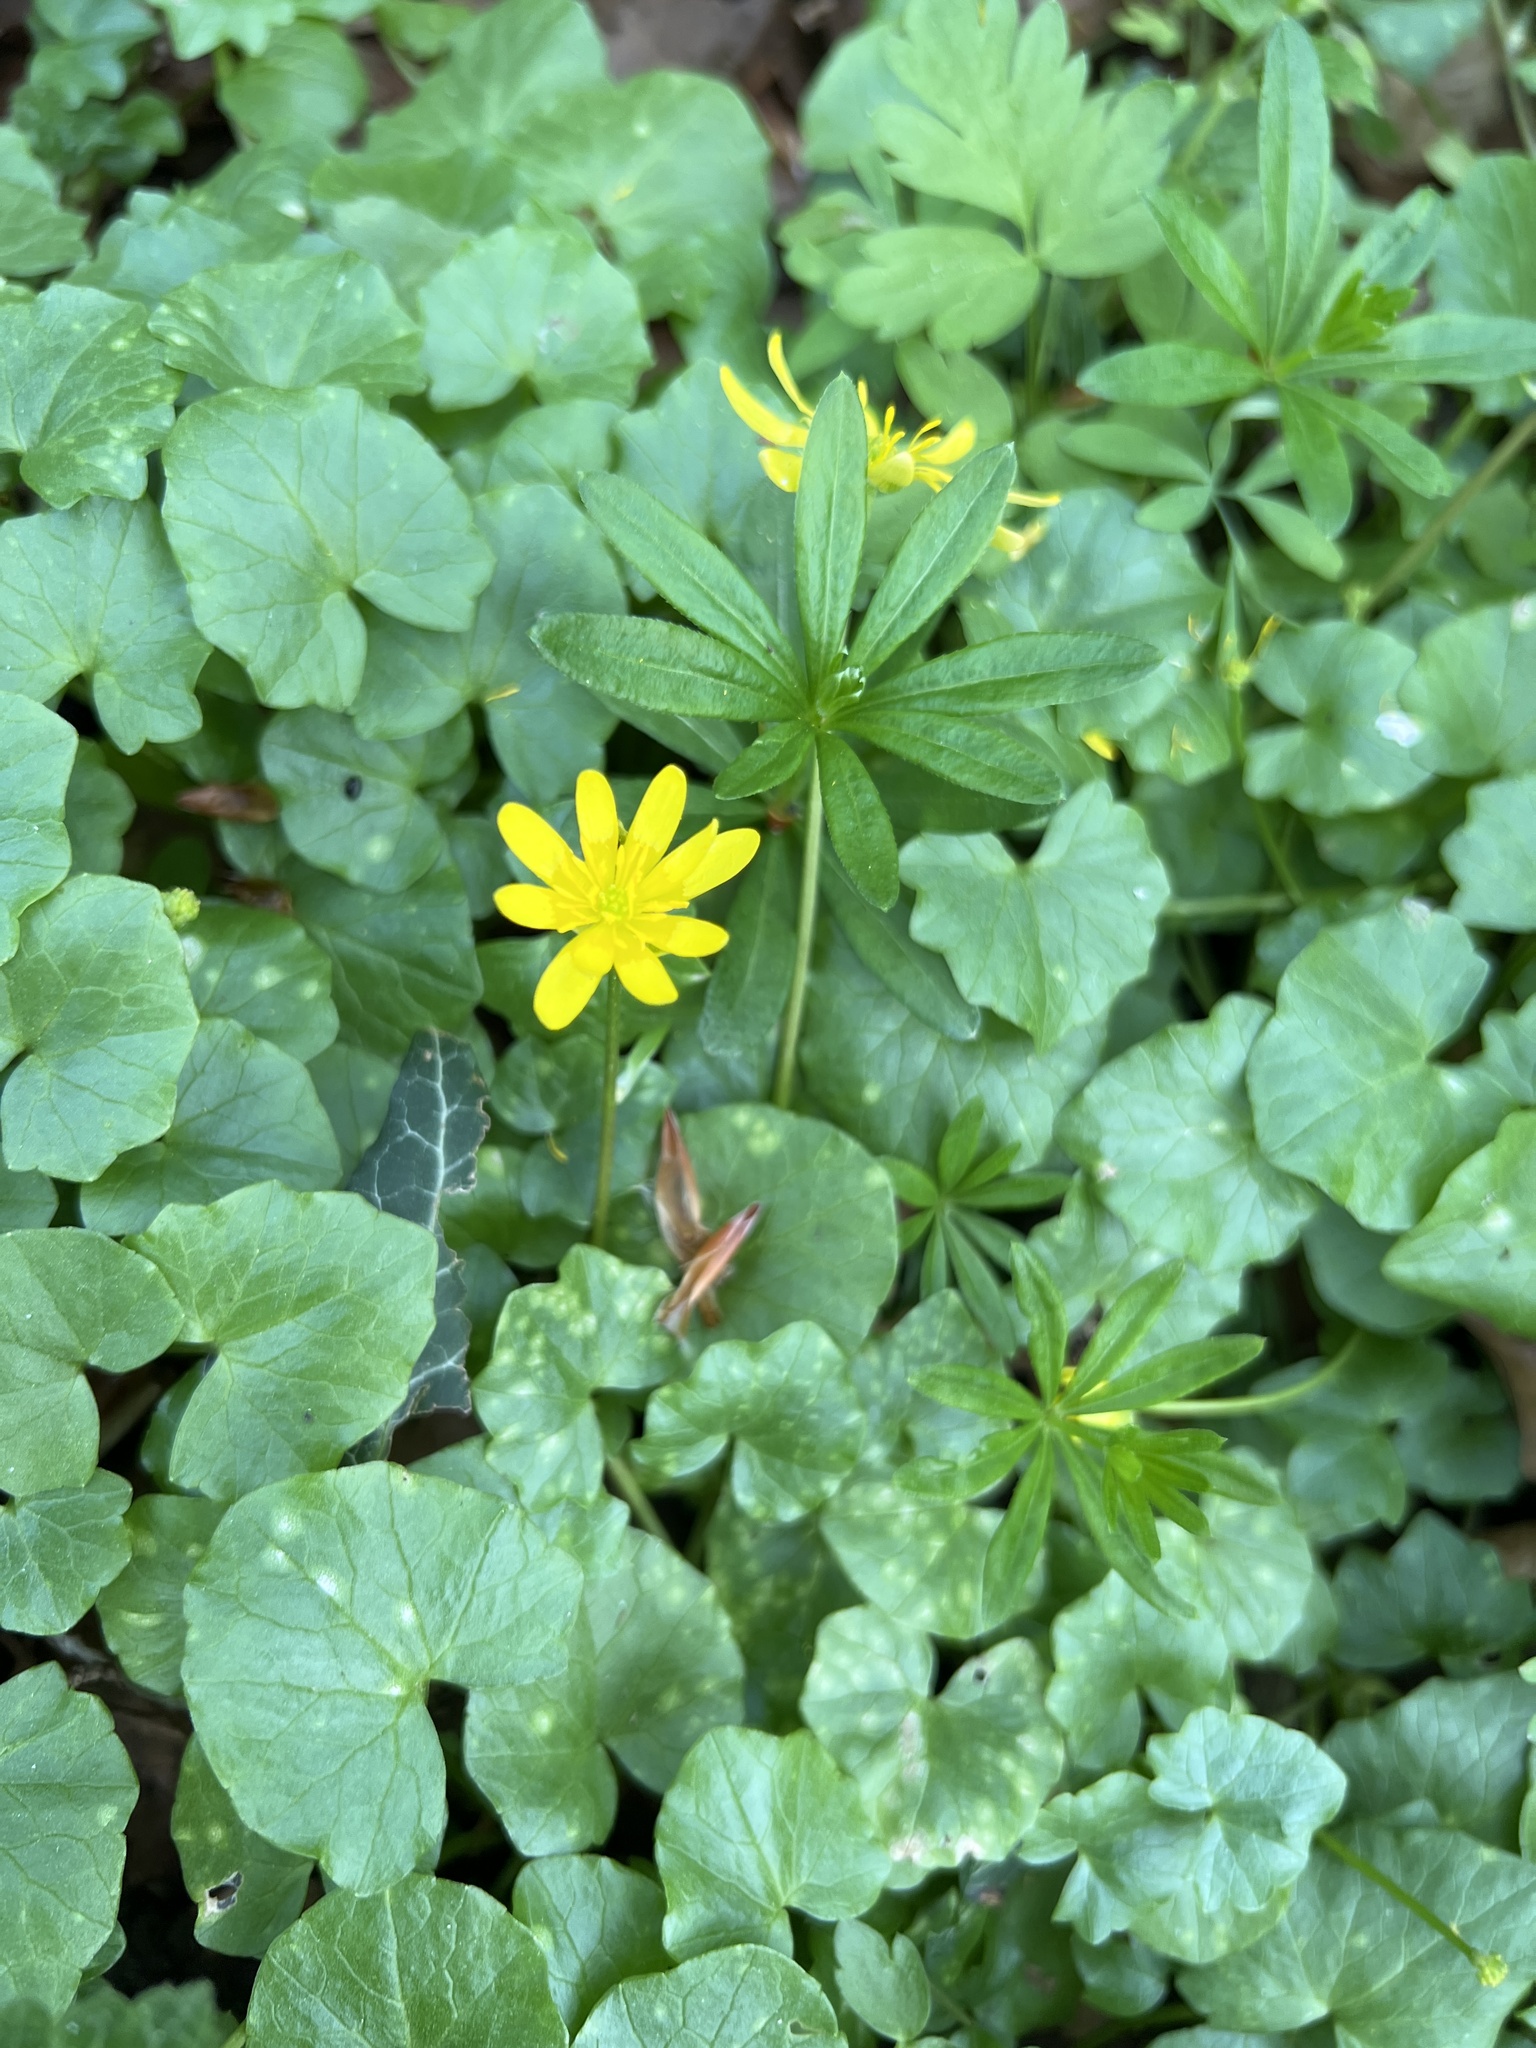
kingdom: Plantae
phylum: Tracheophyta
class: Magnoliopsida
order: Ranunculales
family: Ranunculaceae
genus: Ficaria
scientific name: Ficaria verna
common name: Lesser celandine
